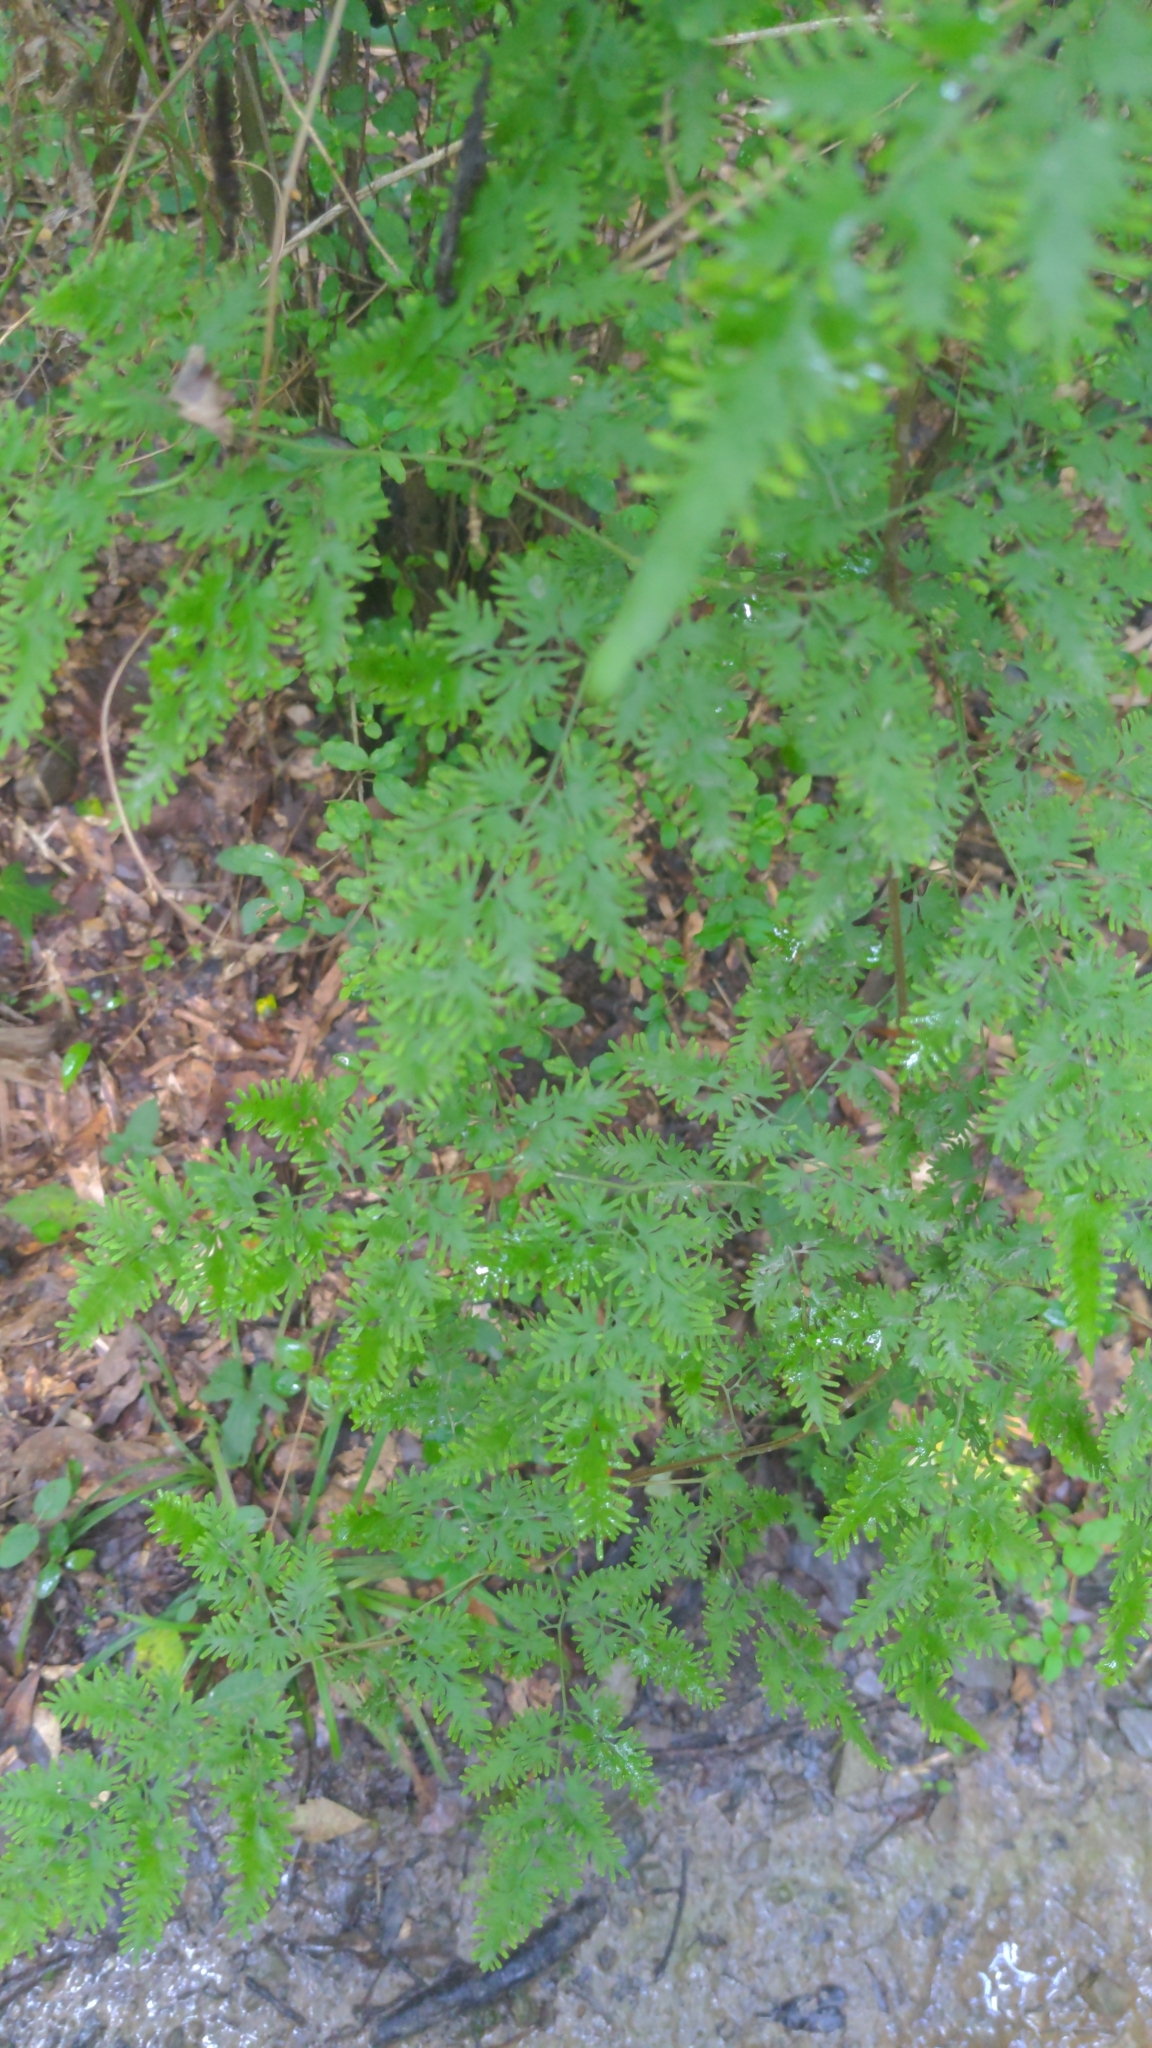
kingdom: Plantae
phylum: Tracheophyta
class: Polypodiopsida
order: Schizaeales
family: Lygodiaceae
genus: Lygodium
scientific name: Lygodium japonicum
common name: Japanese climbing fern
